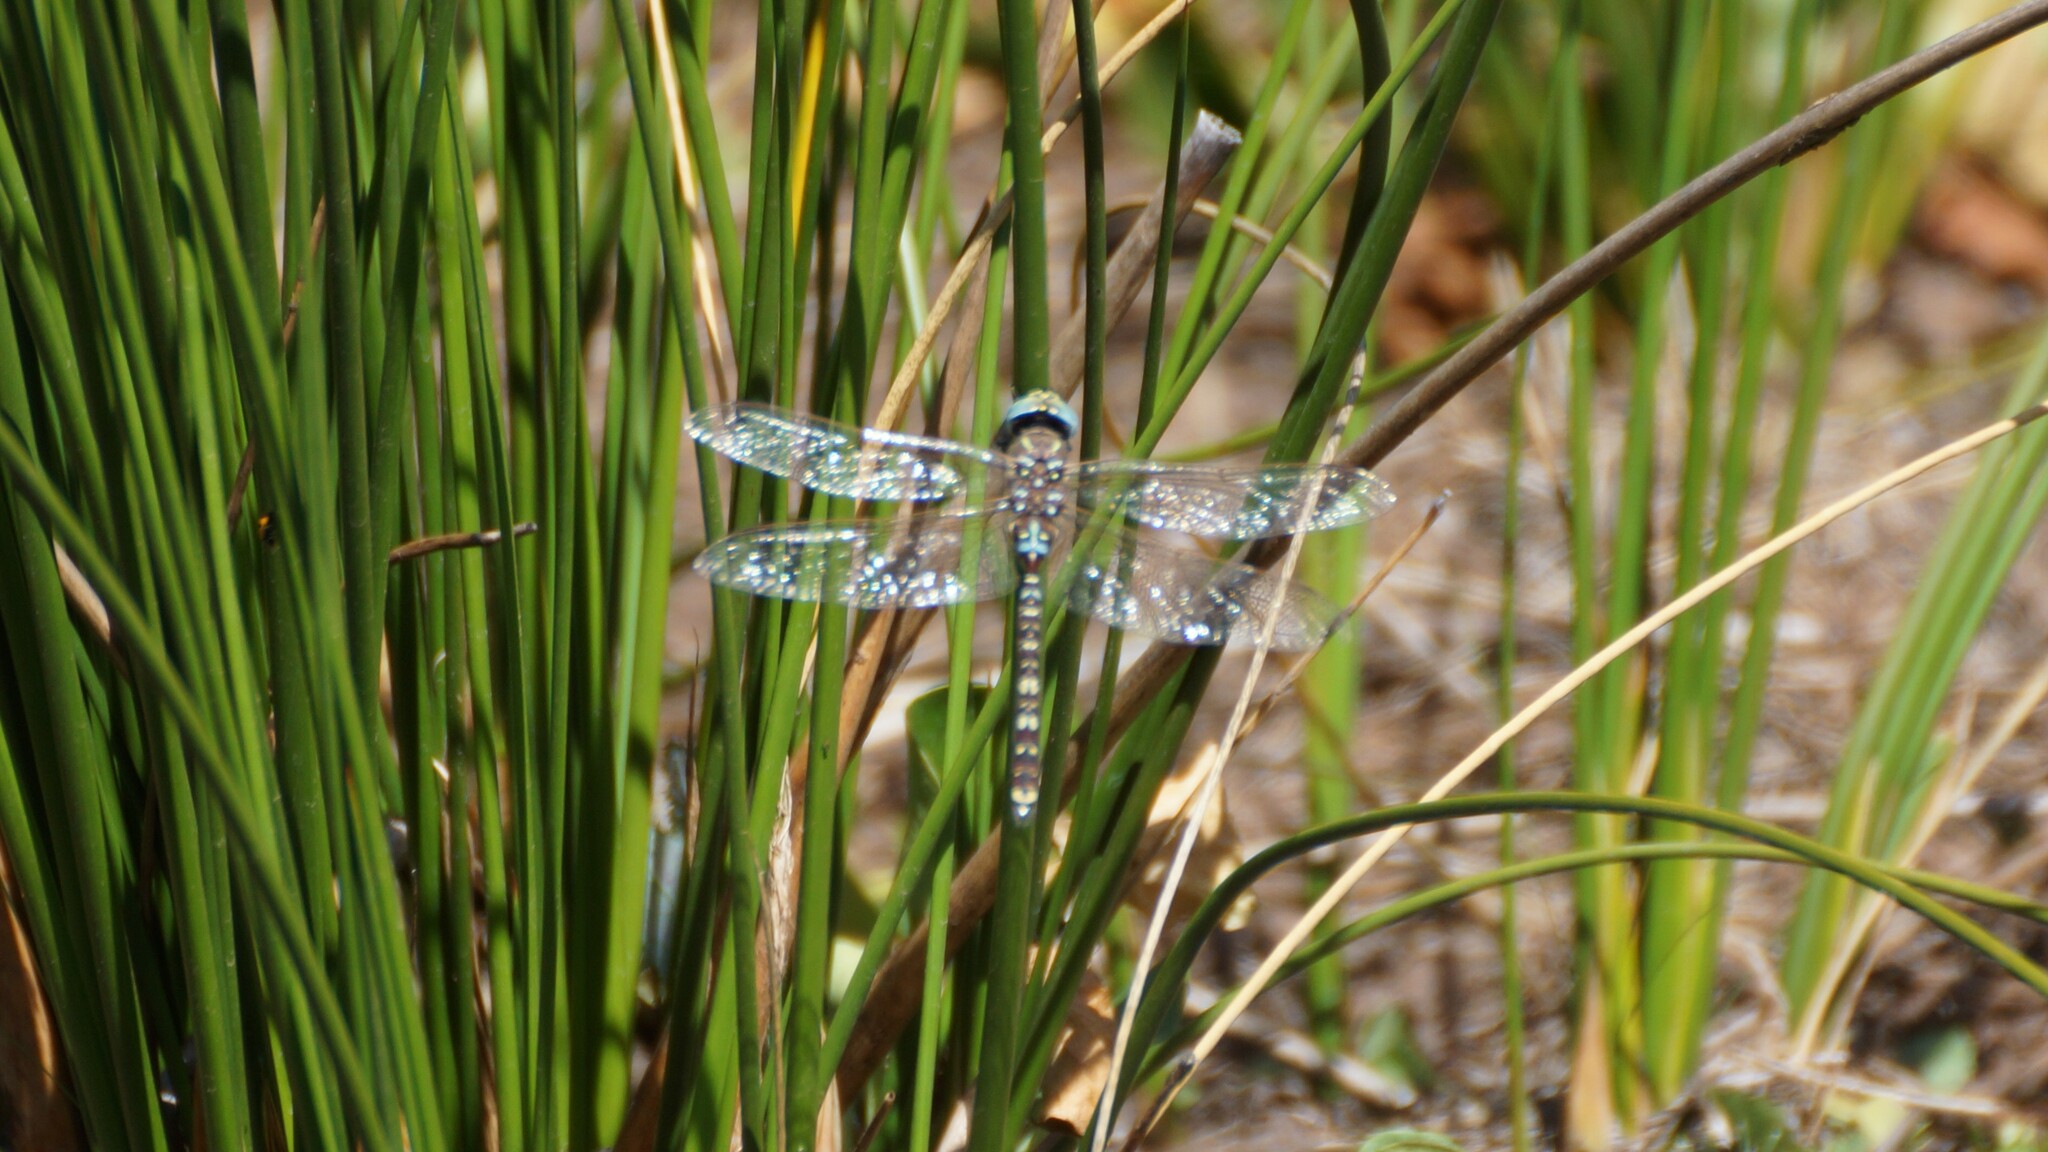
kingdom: Animalia
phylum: Arthropoda
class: Insecta
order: Odonata
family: Aeshnidae
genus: Aeshna
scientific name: Aeshna brevistyla
